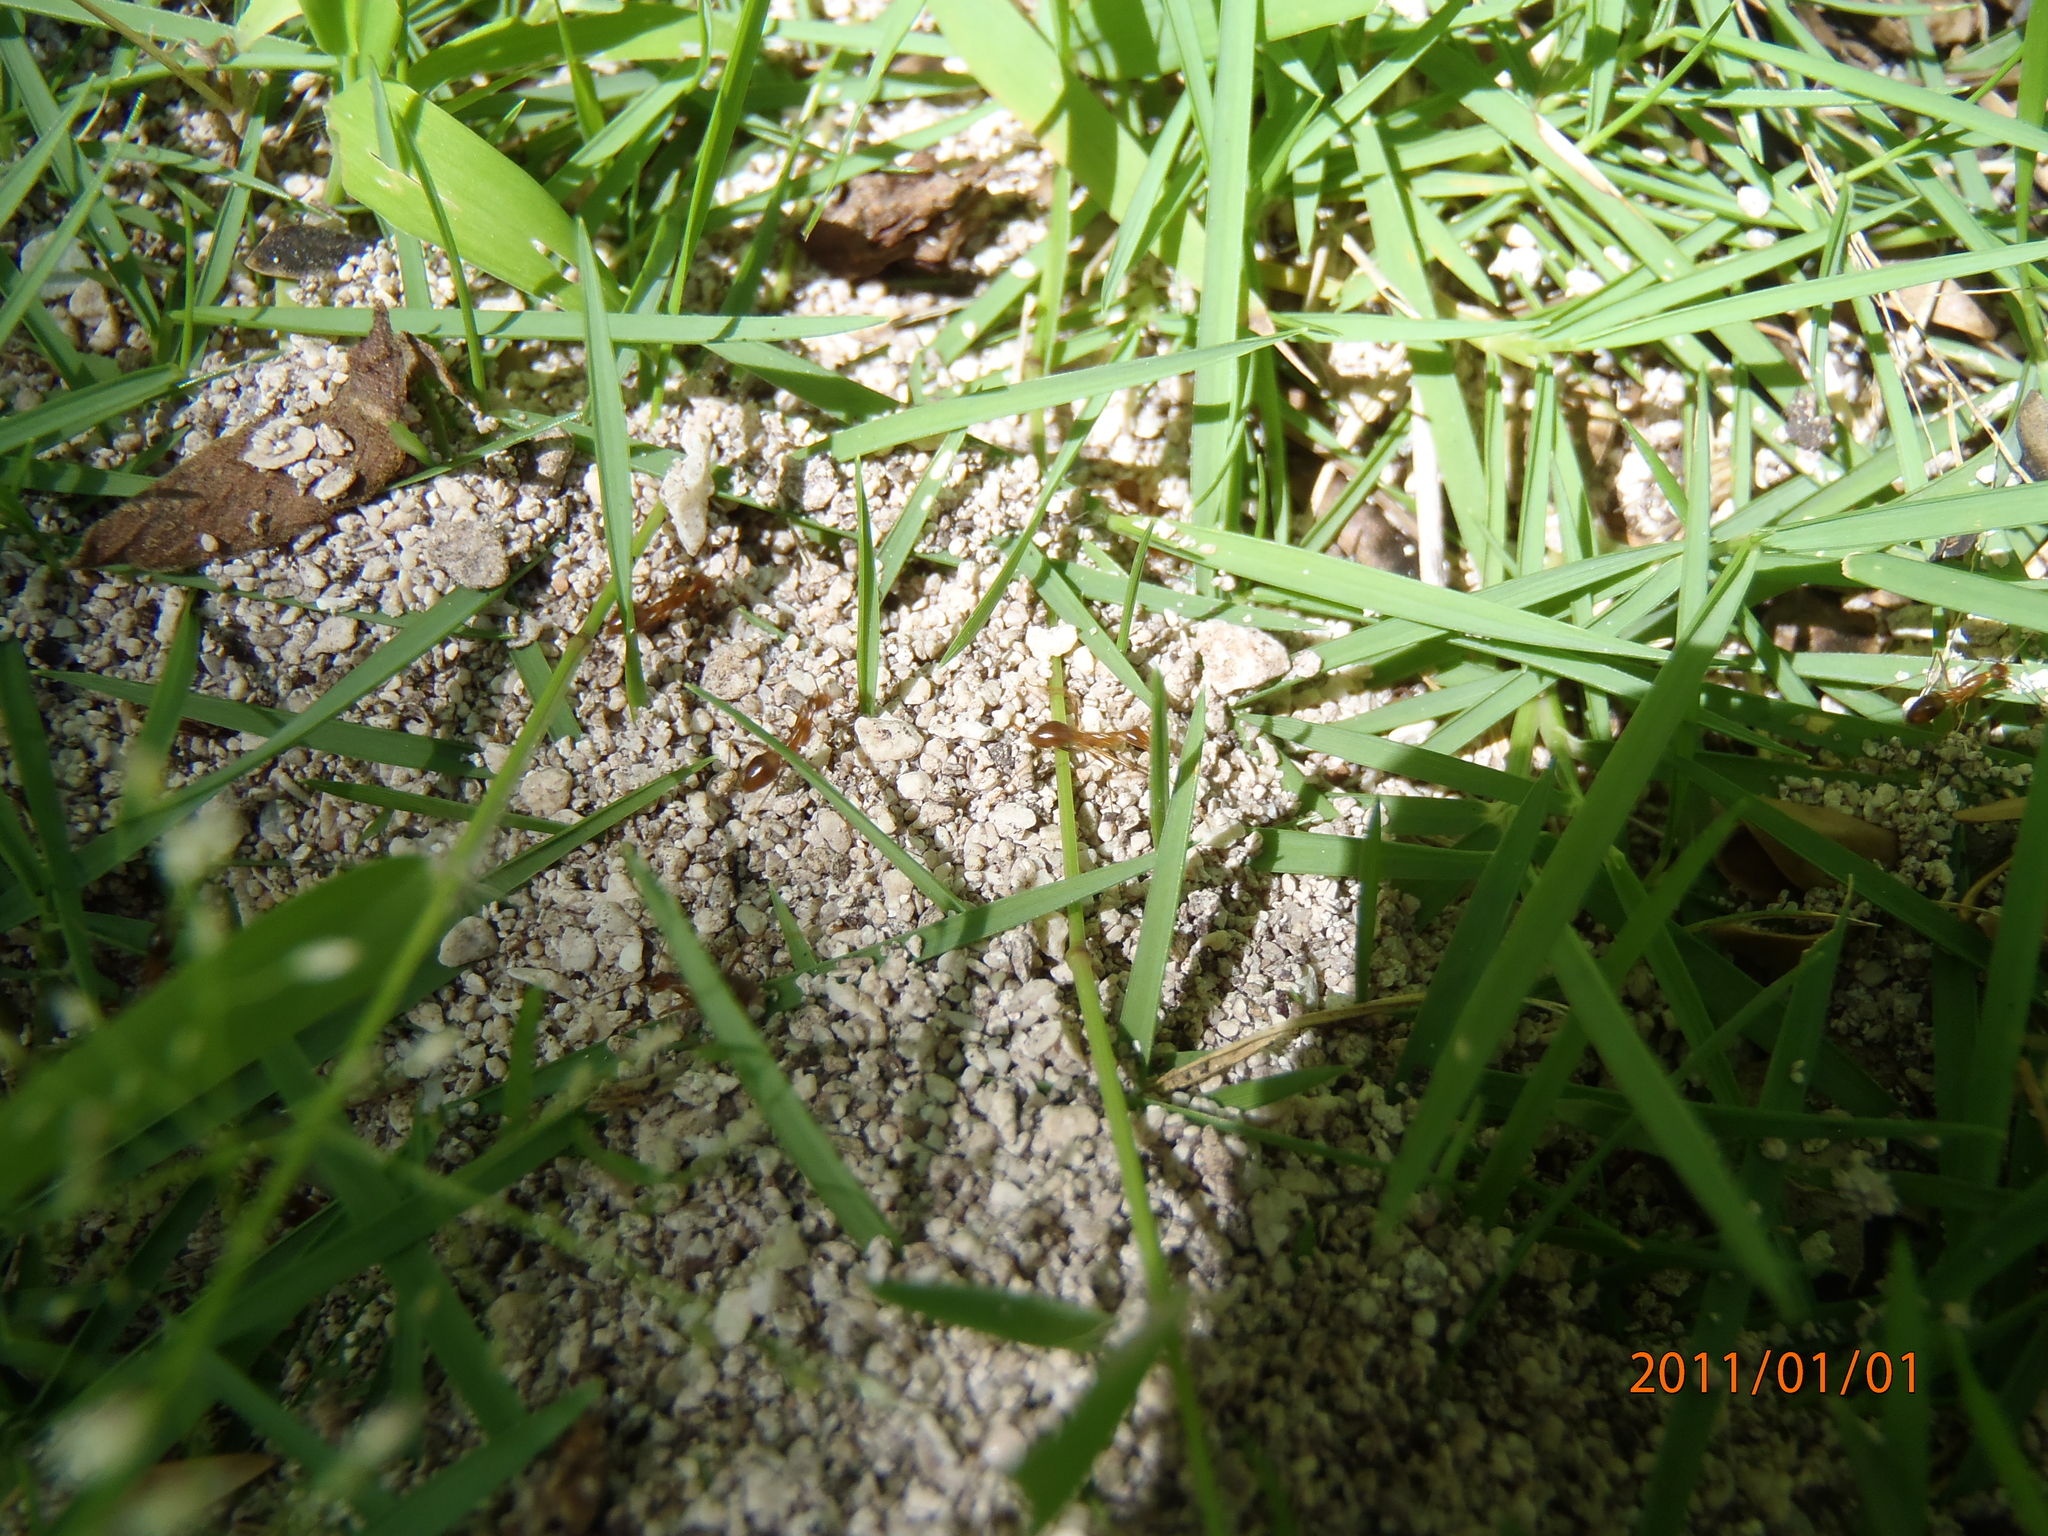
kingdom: Animalia
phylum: Arthropoda
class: Insecta
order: Hymenoptera
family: Formicidae
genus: Anoplolepis
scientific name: Anoplolepis gracilipes
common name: Ant
